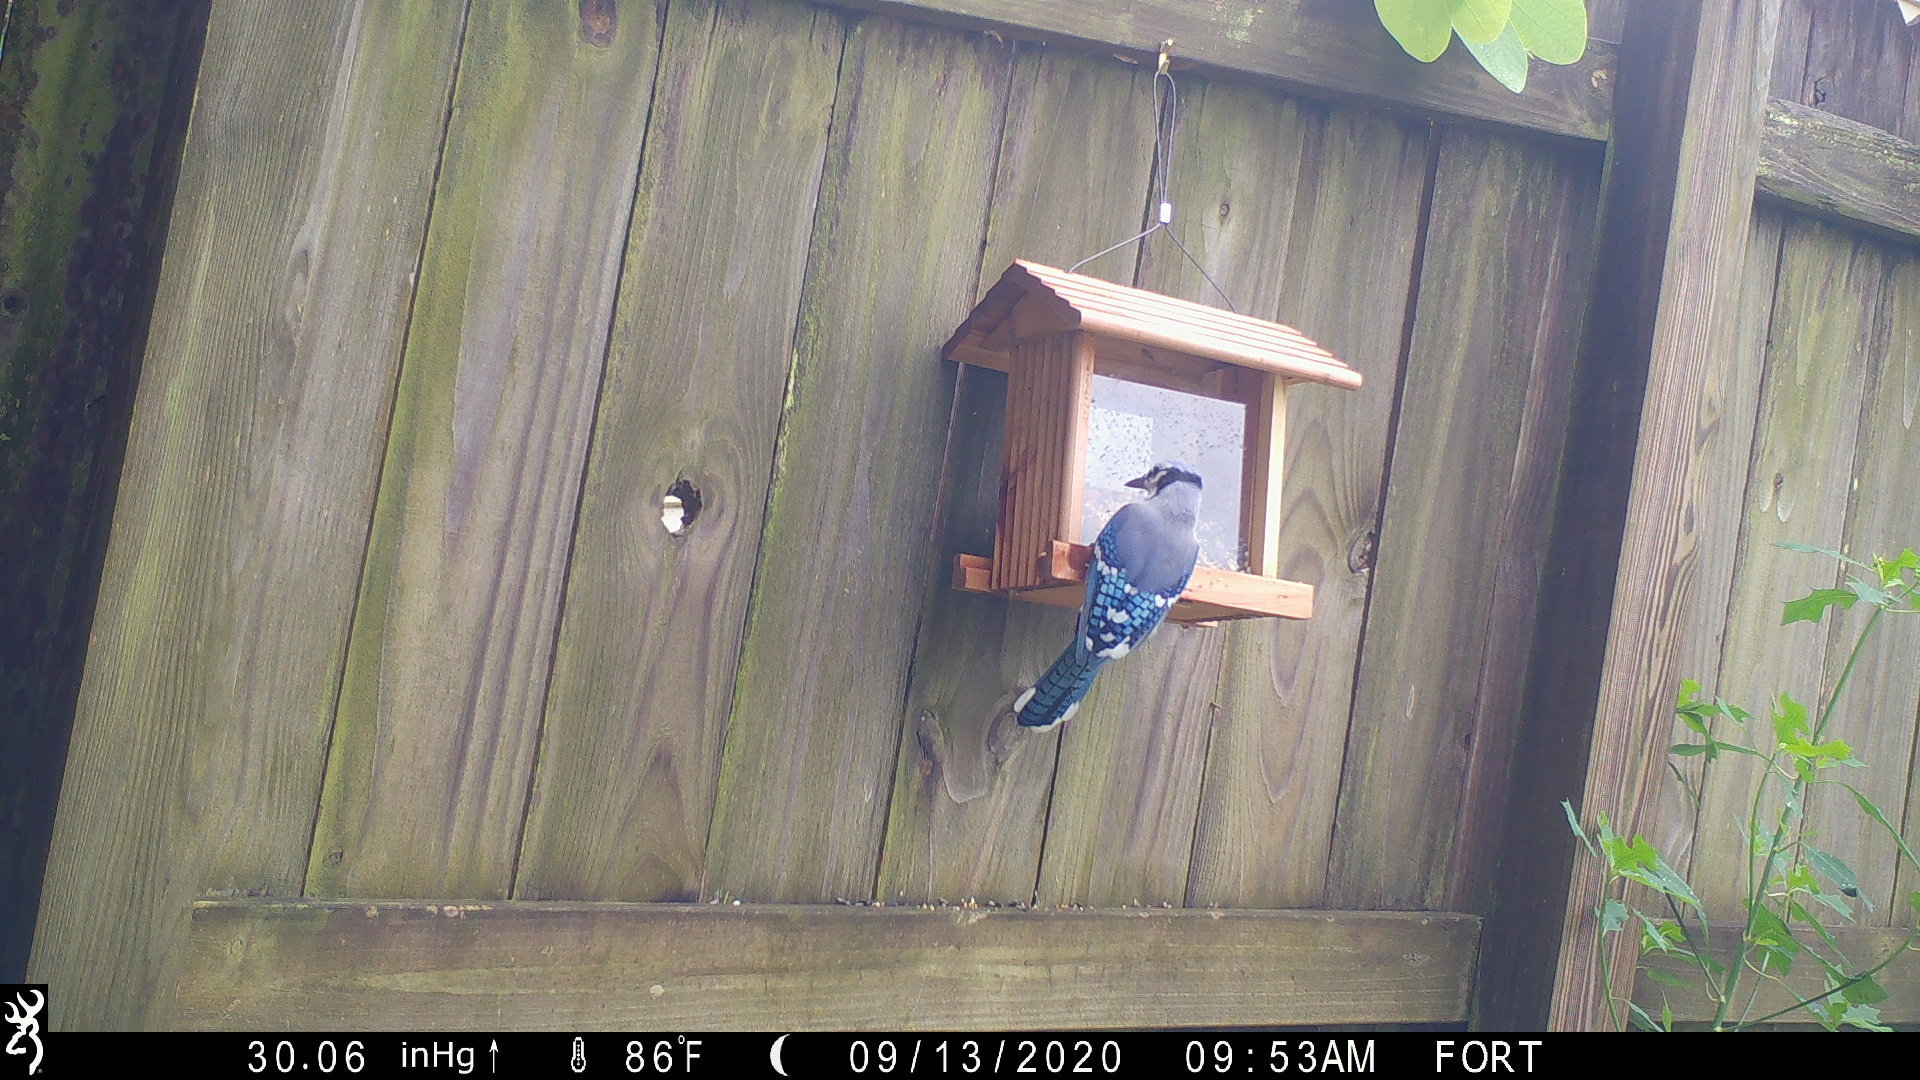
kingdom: Animalia
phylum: Chordata
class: Aves
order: Passeriformes
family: Corvidae
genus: Cyanocitta
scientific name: Cyanocitta cristata
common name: Blue jay
